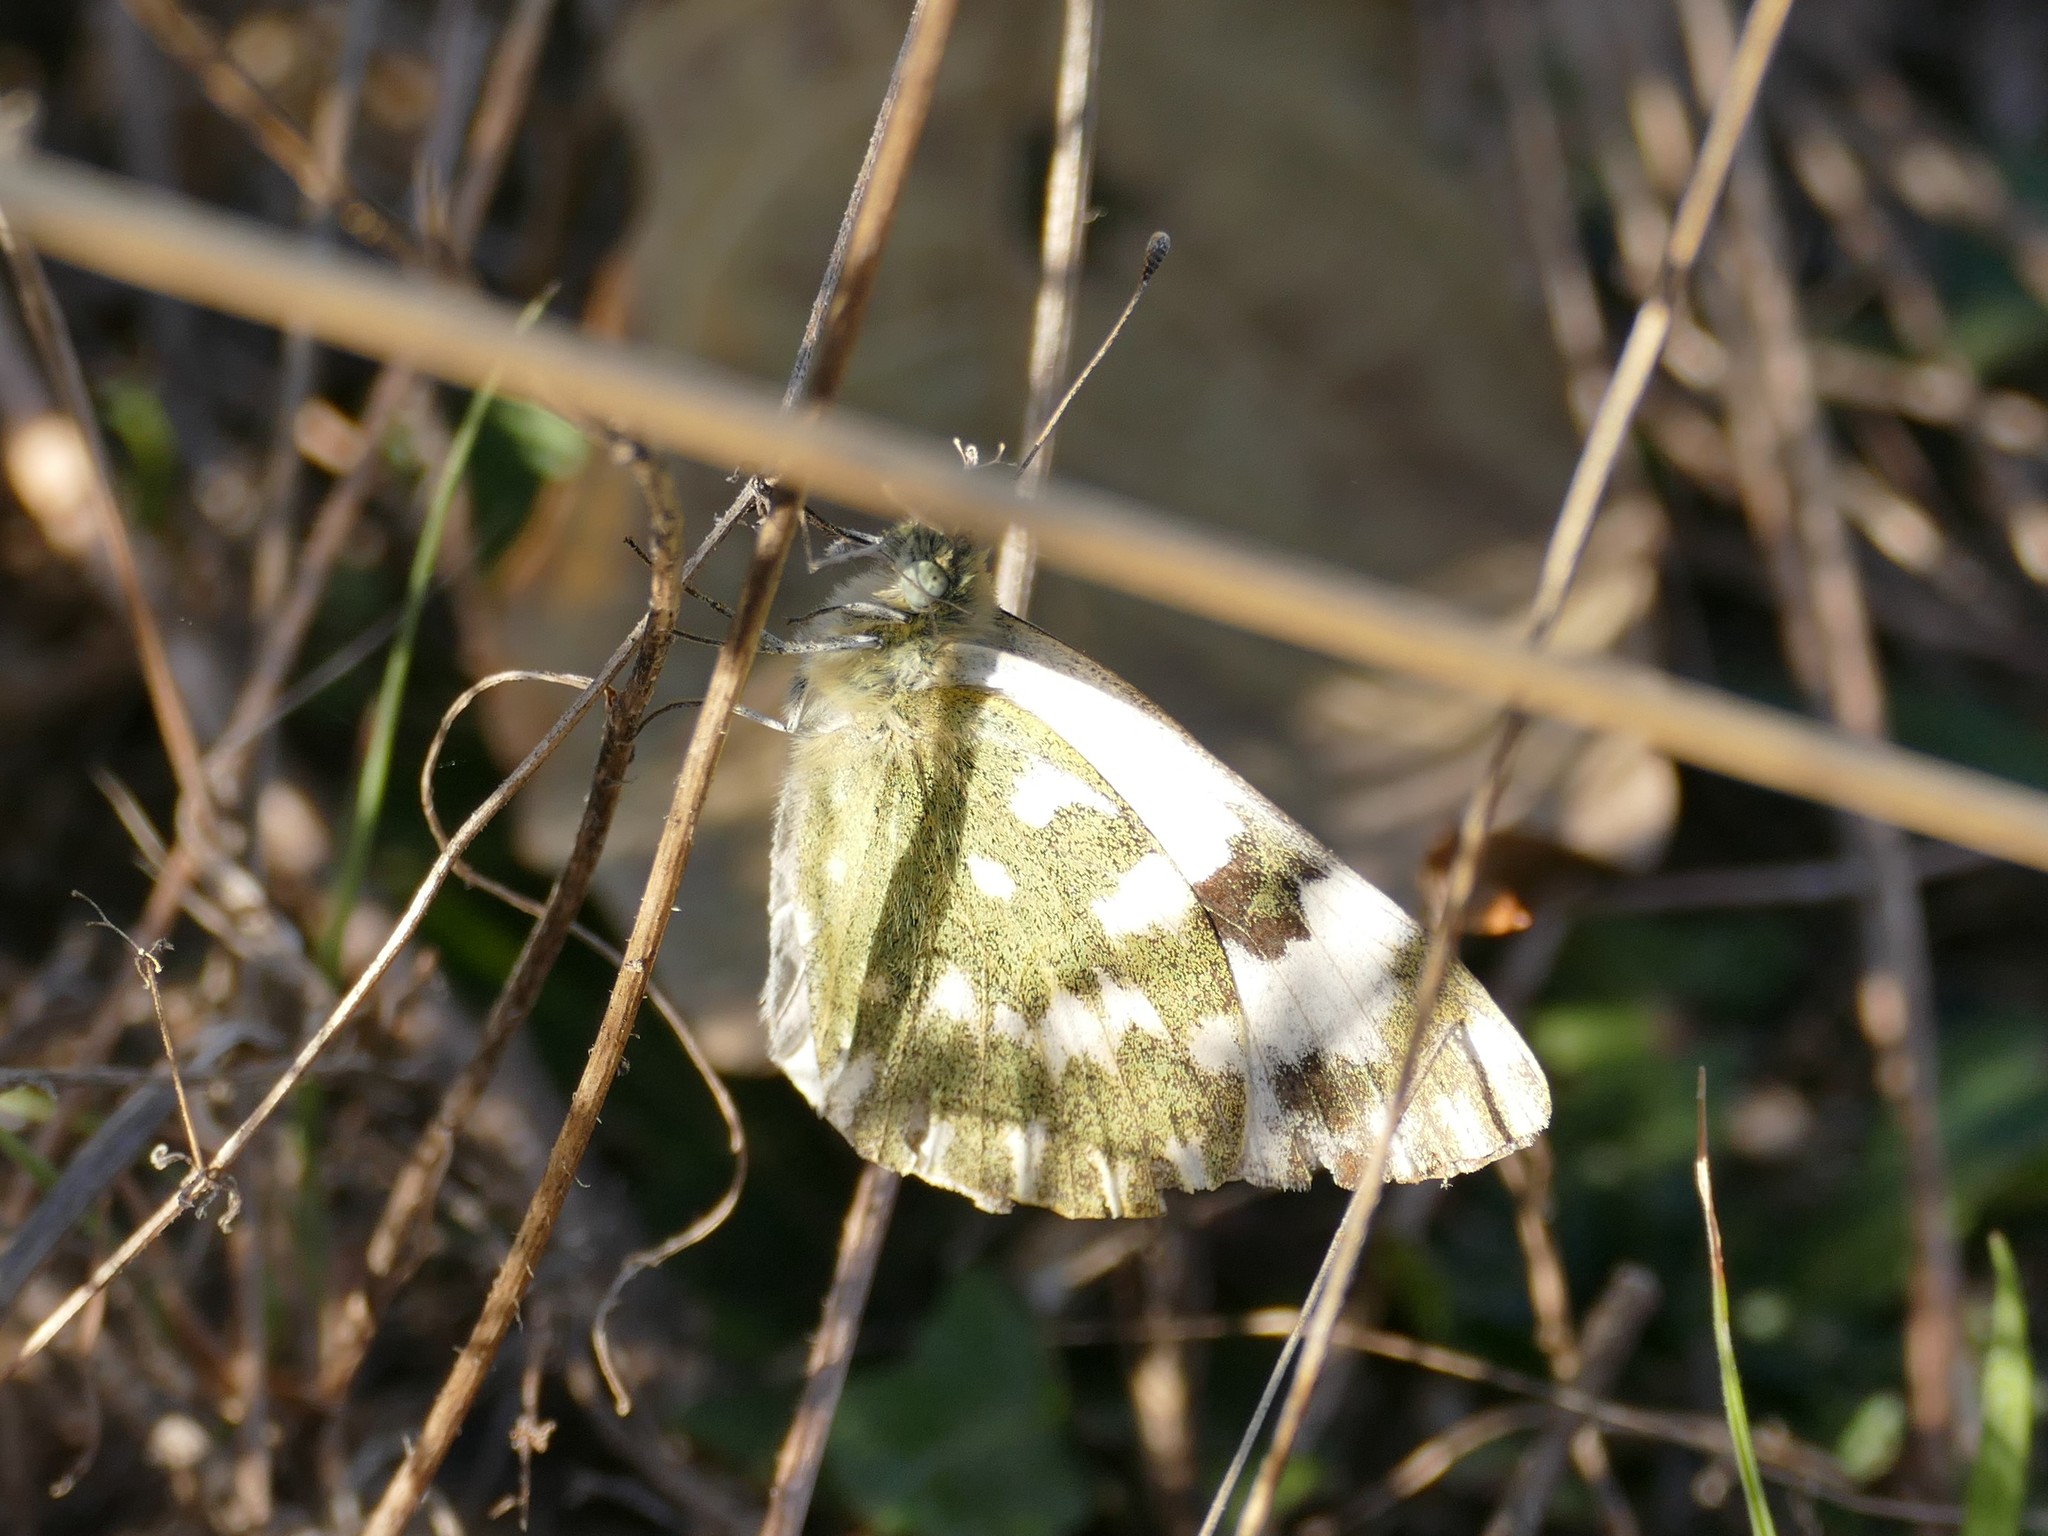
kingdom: Animalia
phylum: Arthropoda
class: Insecta
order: Lepidoptera
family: Pieridae
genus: Pontia
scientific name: Pontia daplidice
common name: Bath white
